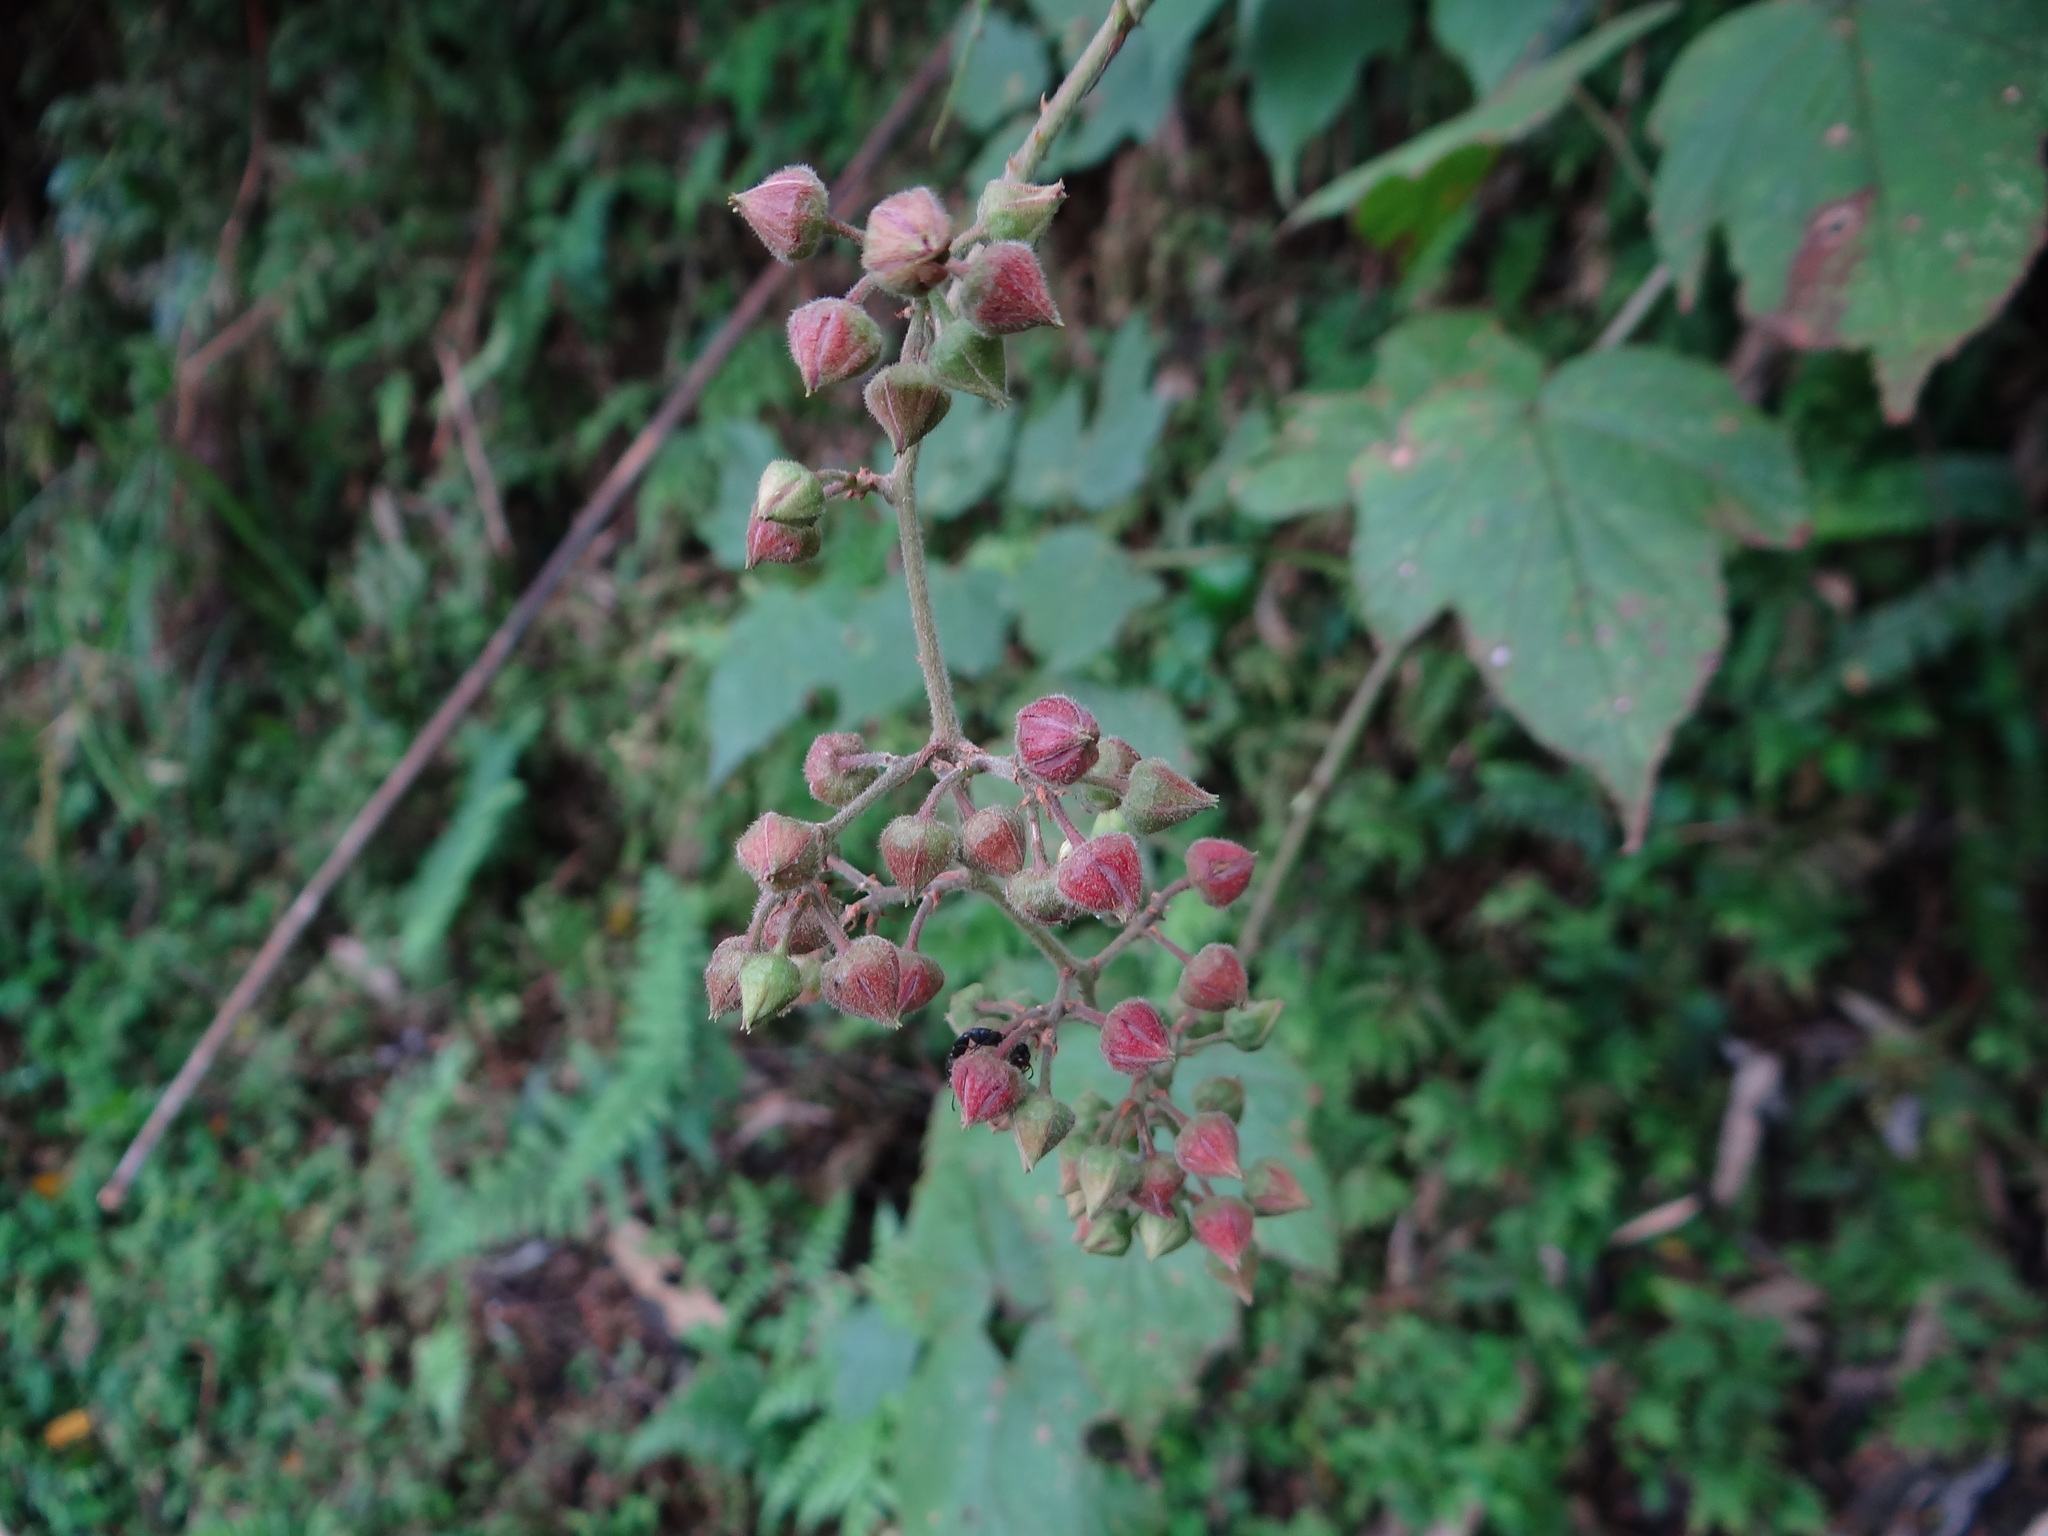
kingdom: Plantae
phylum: Tracheophyta
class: Magnoliopsida
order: Rosales
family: Rosaceae
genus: Rubus
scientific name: Rubus lambertianus
